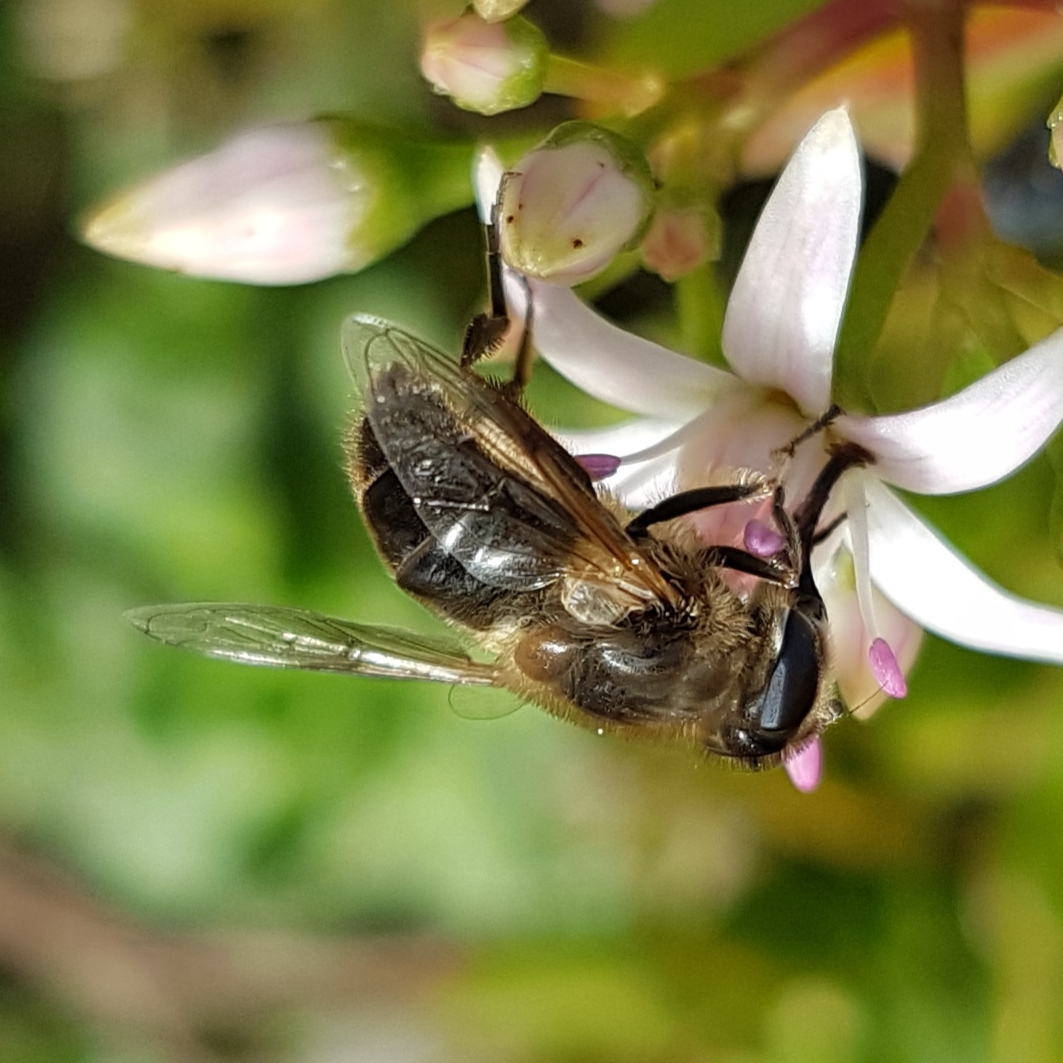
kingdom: Animalia
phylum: Arthropoda
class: Insecta
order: Diptera
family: Syrphidae
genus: Eristalis
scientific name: Eristalis tenax
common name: Drone fly
